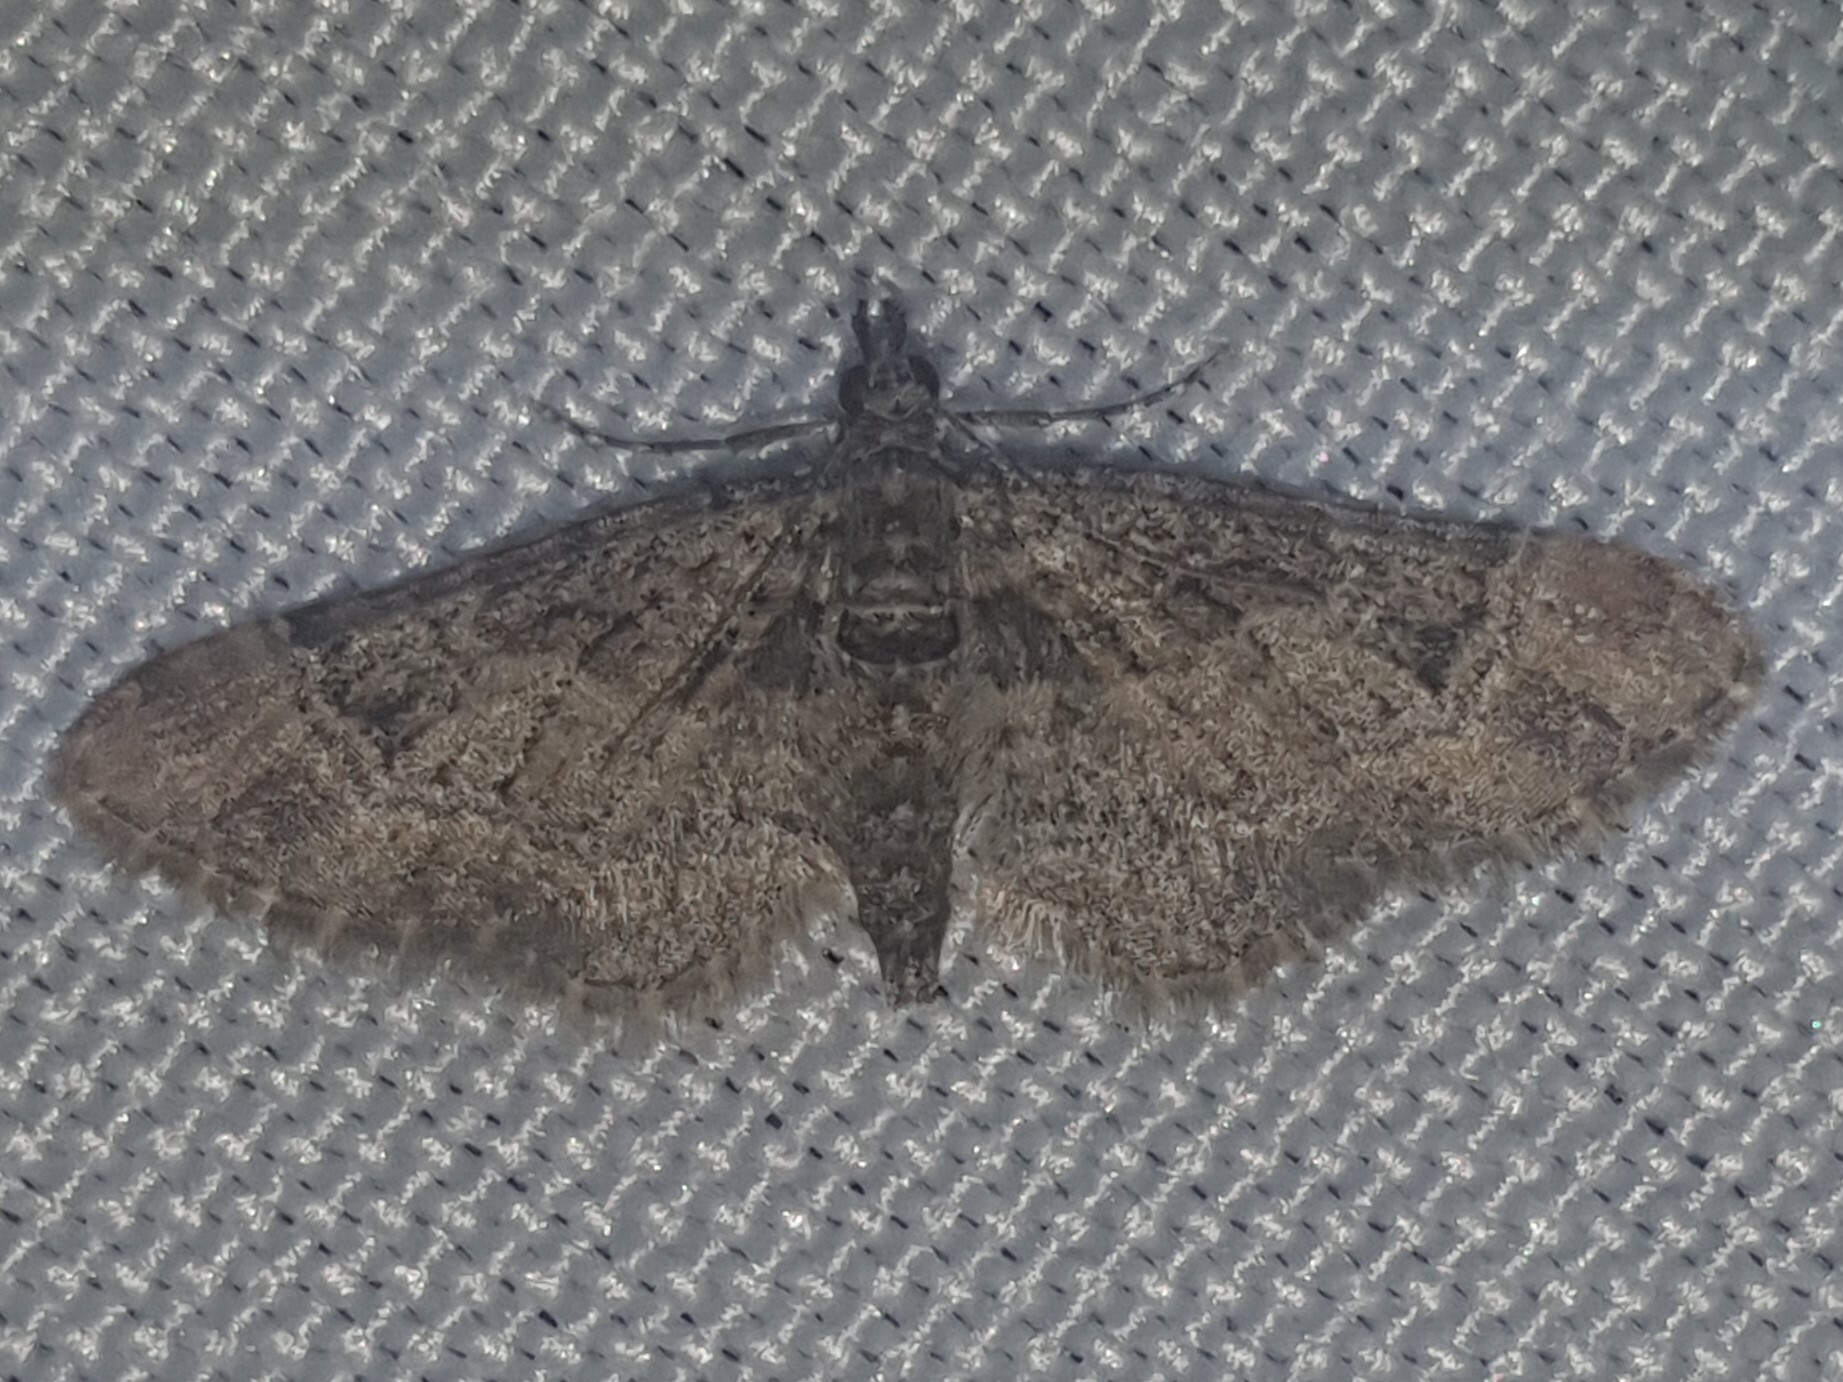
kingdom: Animalia
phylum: Arthropoda
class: Insecta
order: Lepidoptera
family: Geometridae
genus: Gymnoscelis
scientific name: Gymnoscelis rufifasciata
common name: Double-striped pug
